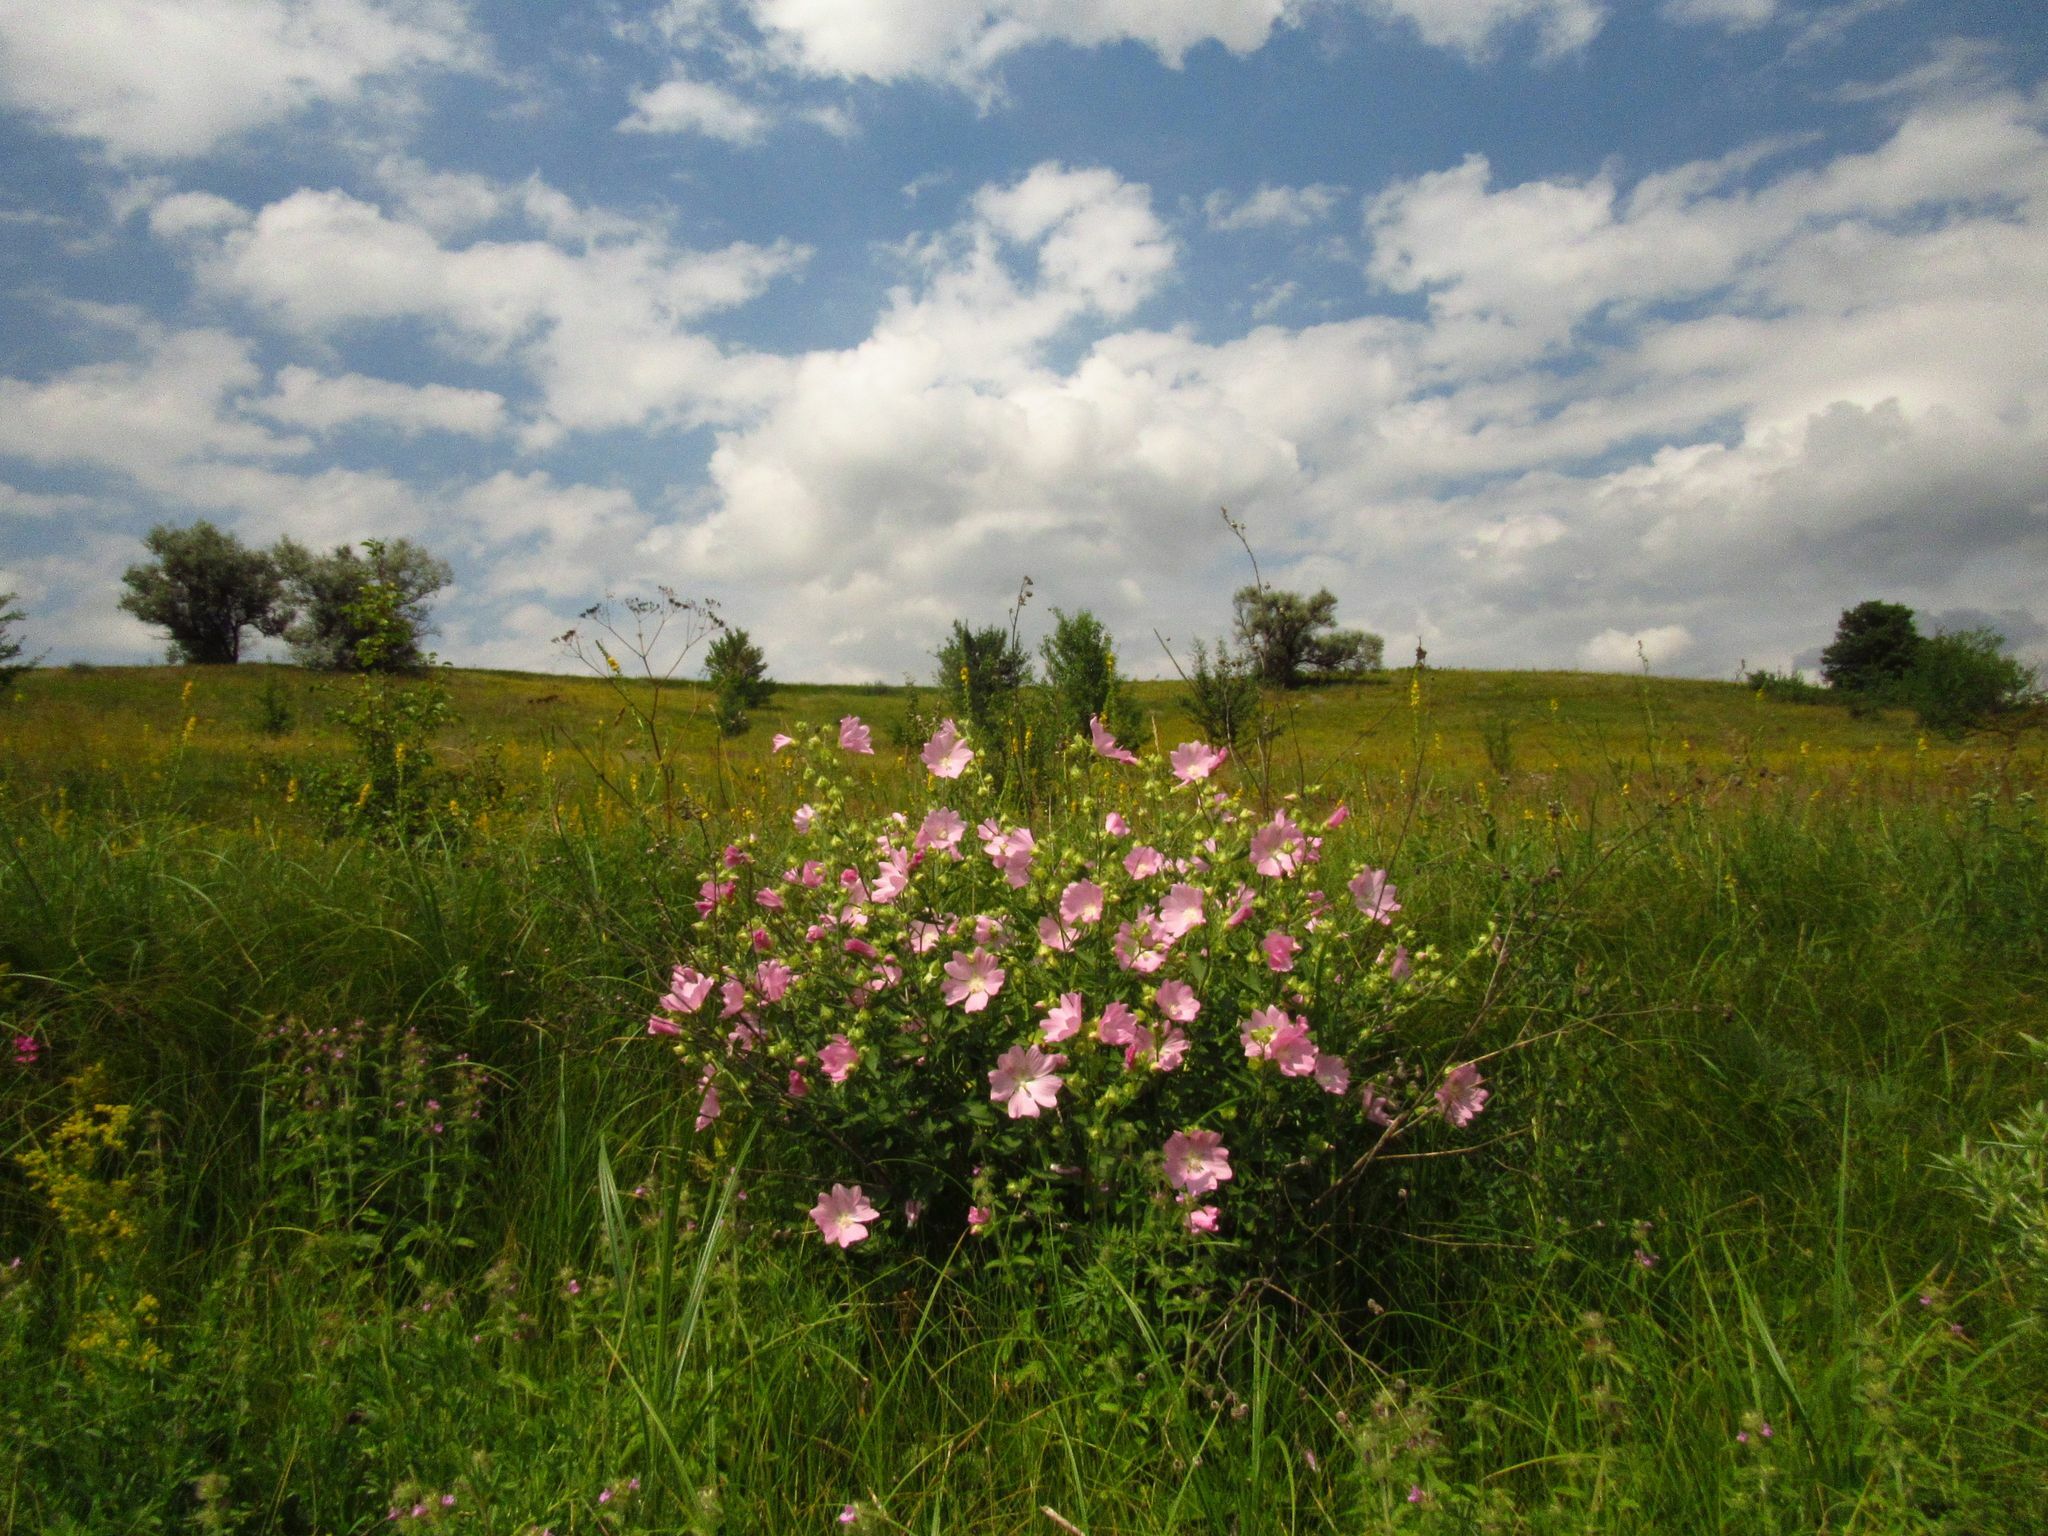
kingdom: Plantae
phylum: Tracheophyta
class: Magnoliopsida
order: Malvales
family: Malvaceae
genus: Malva
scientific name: Malva thuringiaca
